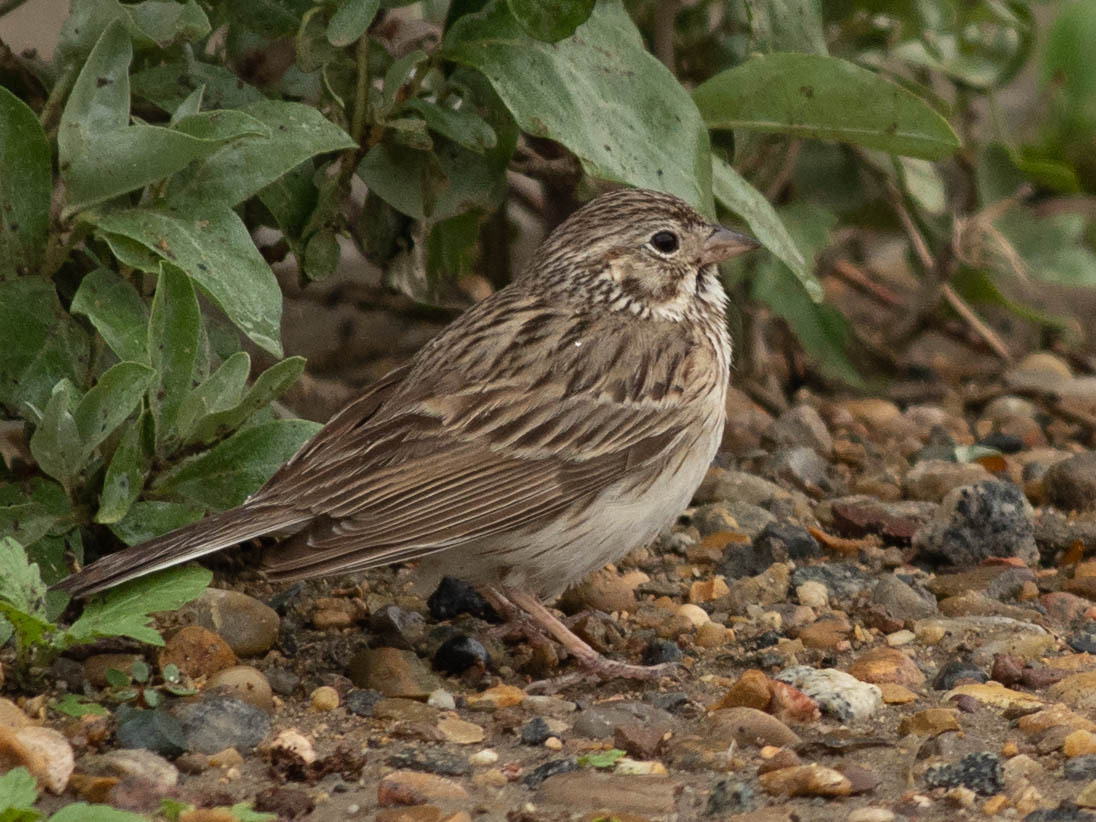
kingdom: Animalia
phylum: Chordata
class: Aves
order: Passeriformes
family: Passerellidae
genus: Pooecetes
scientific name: Pooecetes gramineus
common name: Vesper sparrow
